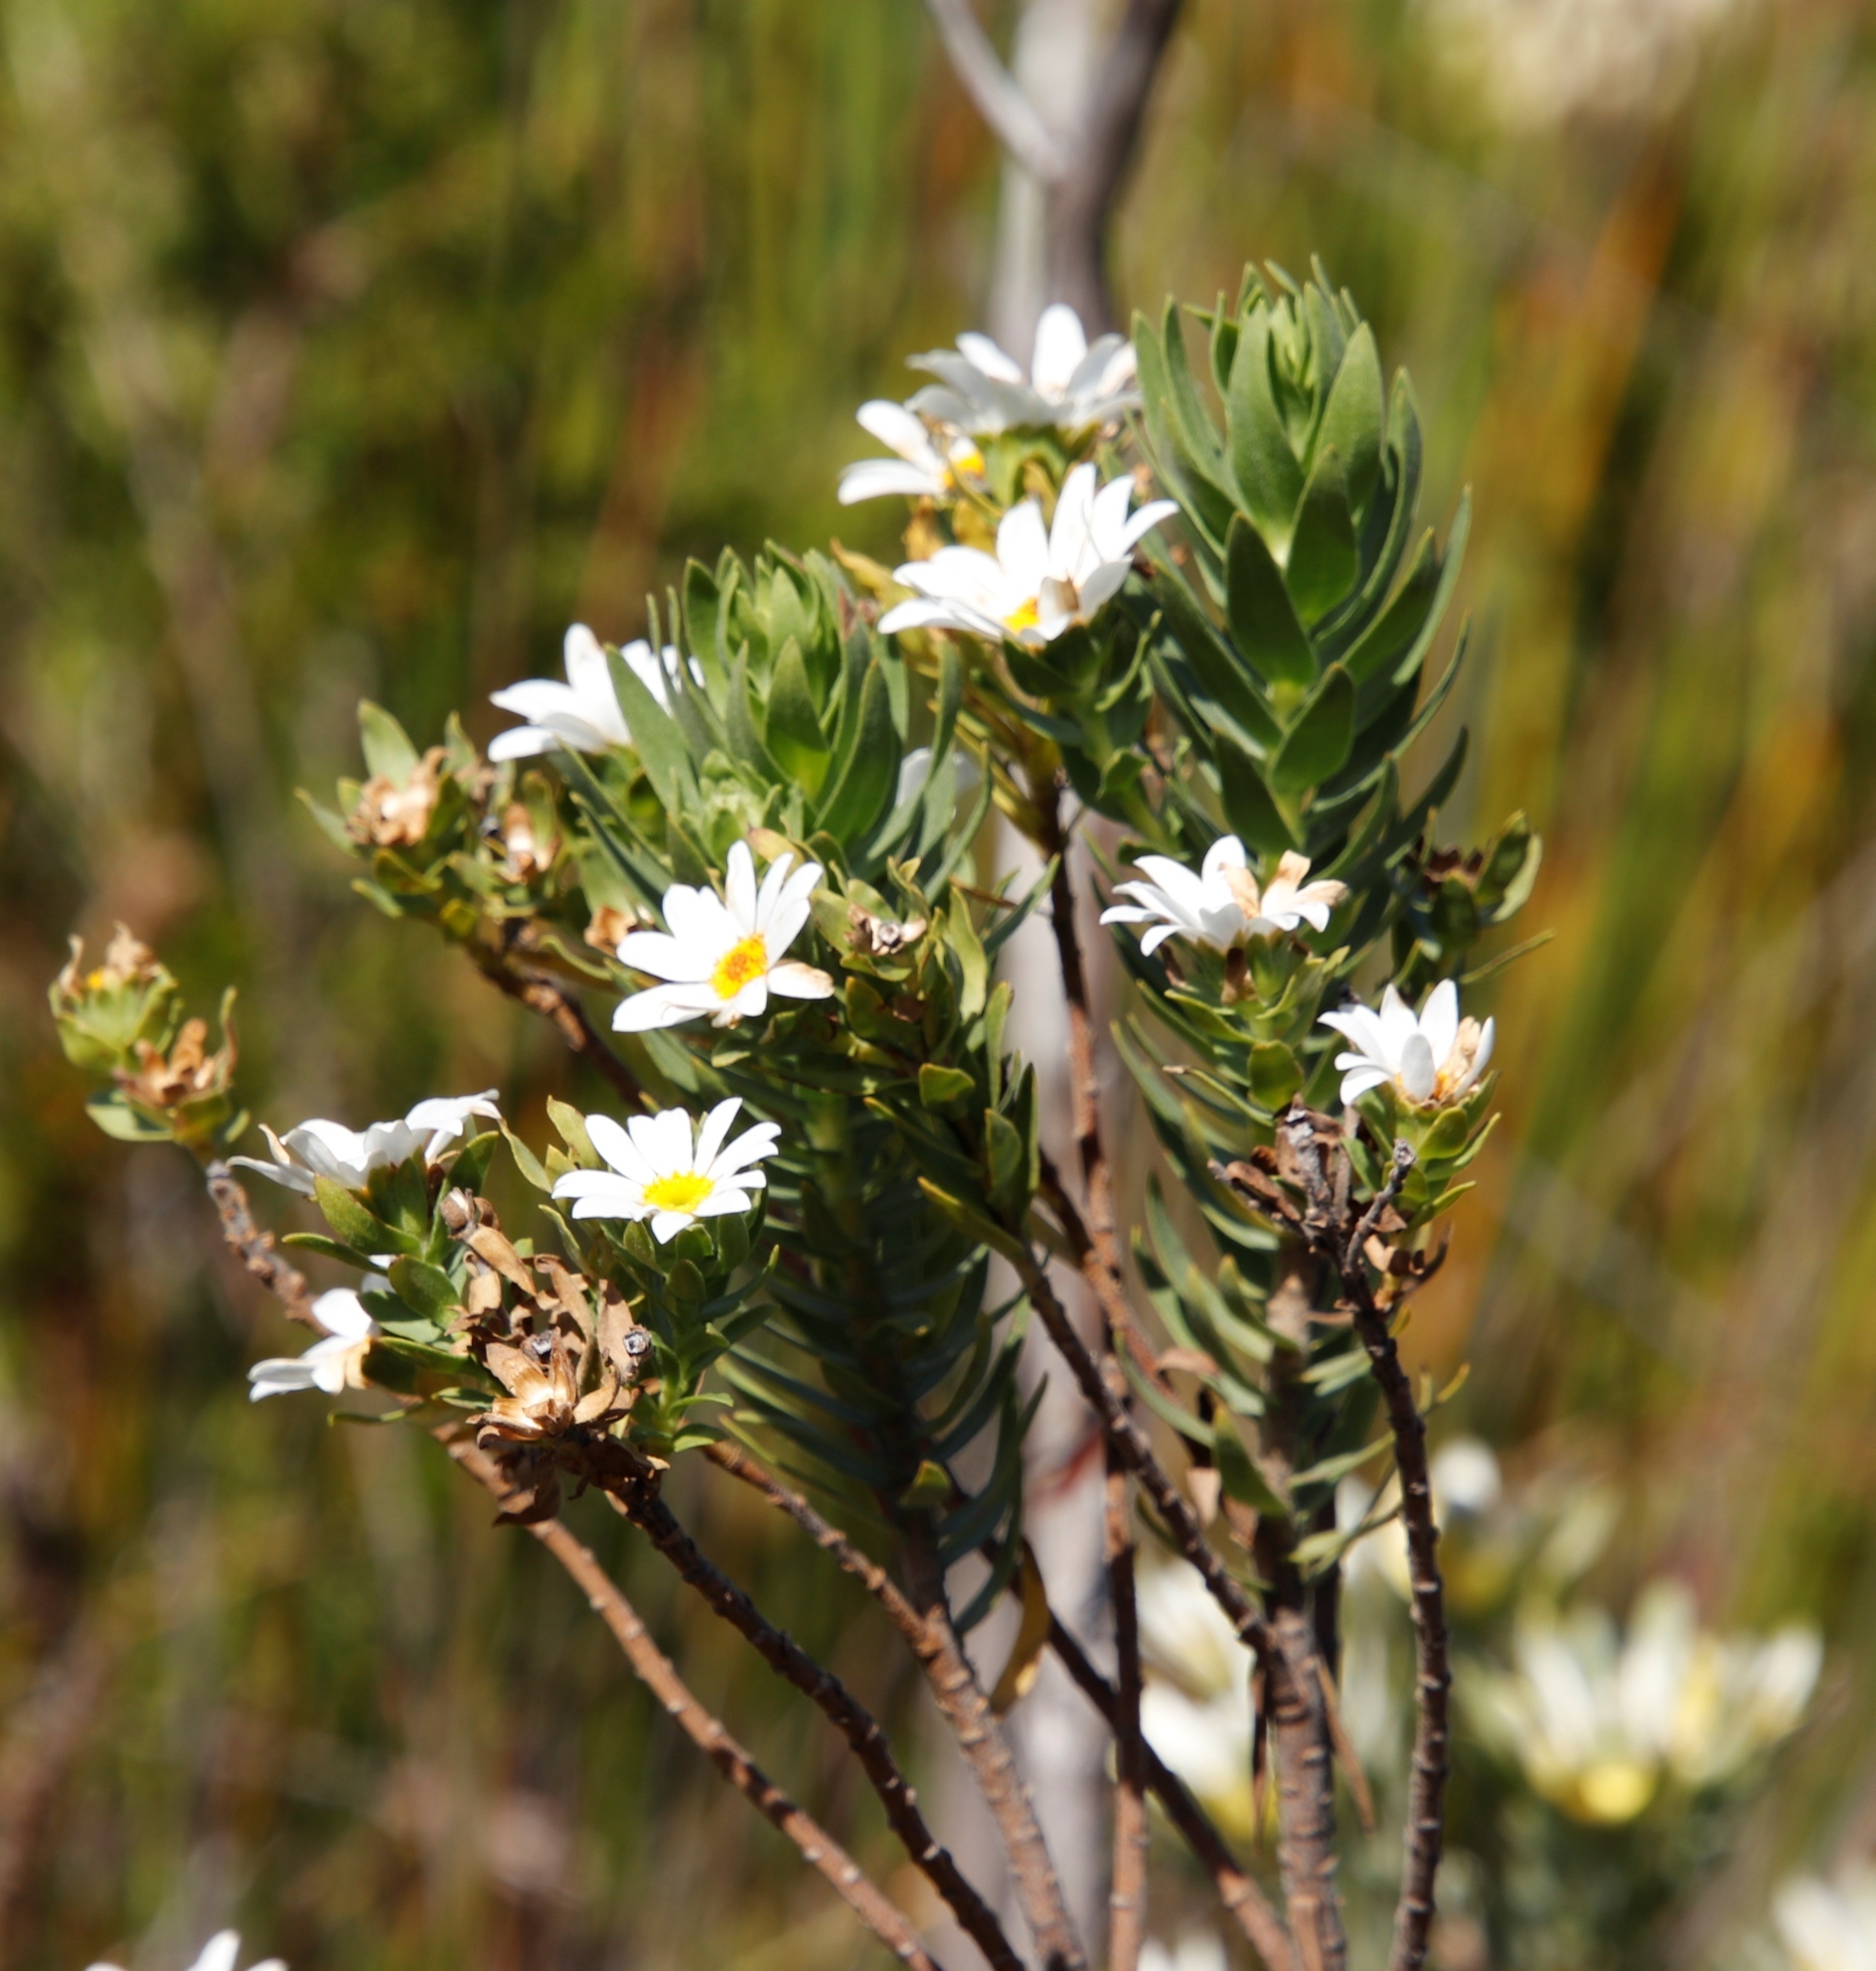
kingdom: Plantae
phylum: Tracheophyta
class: Magnoliopsida
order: Asterales
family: Asteraceae
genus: Osmitopsis
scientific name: Osmitopsis asteriscoides
